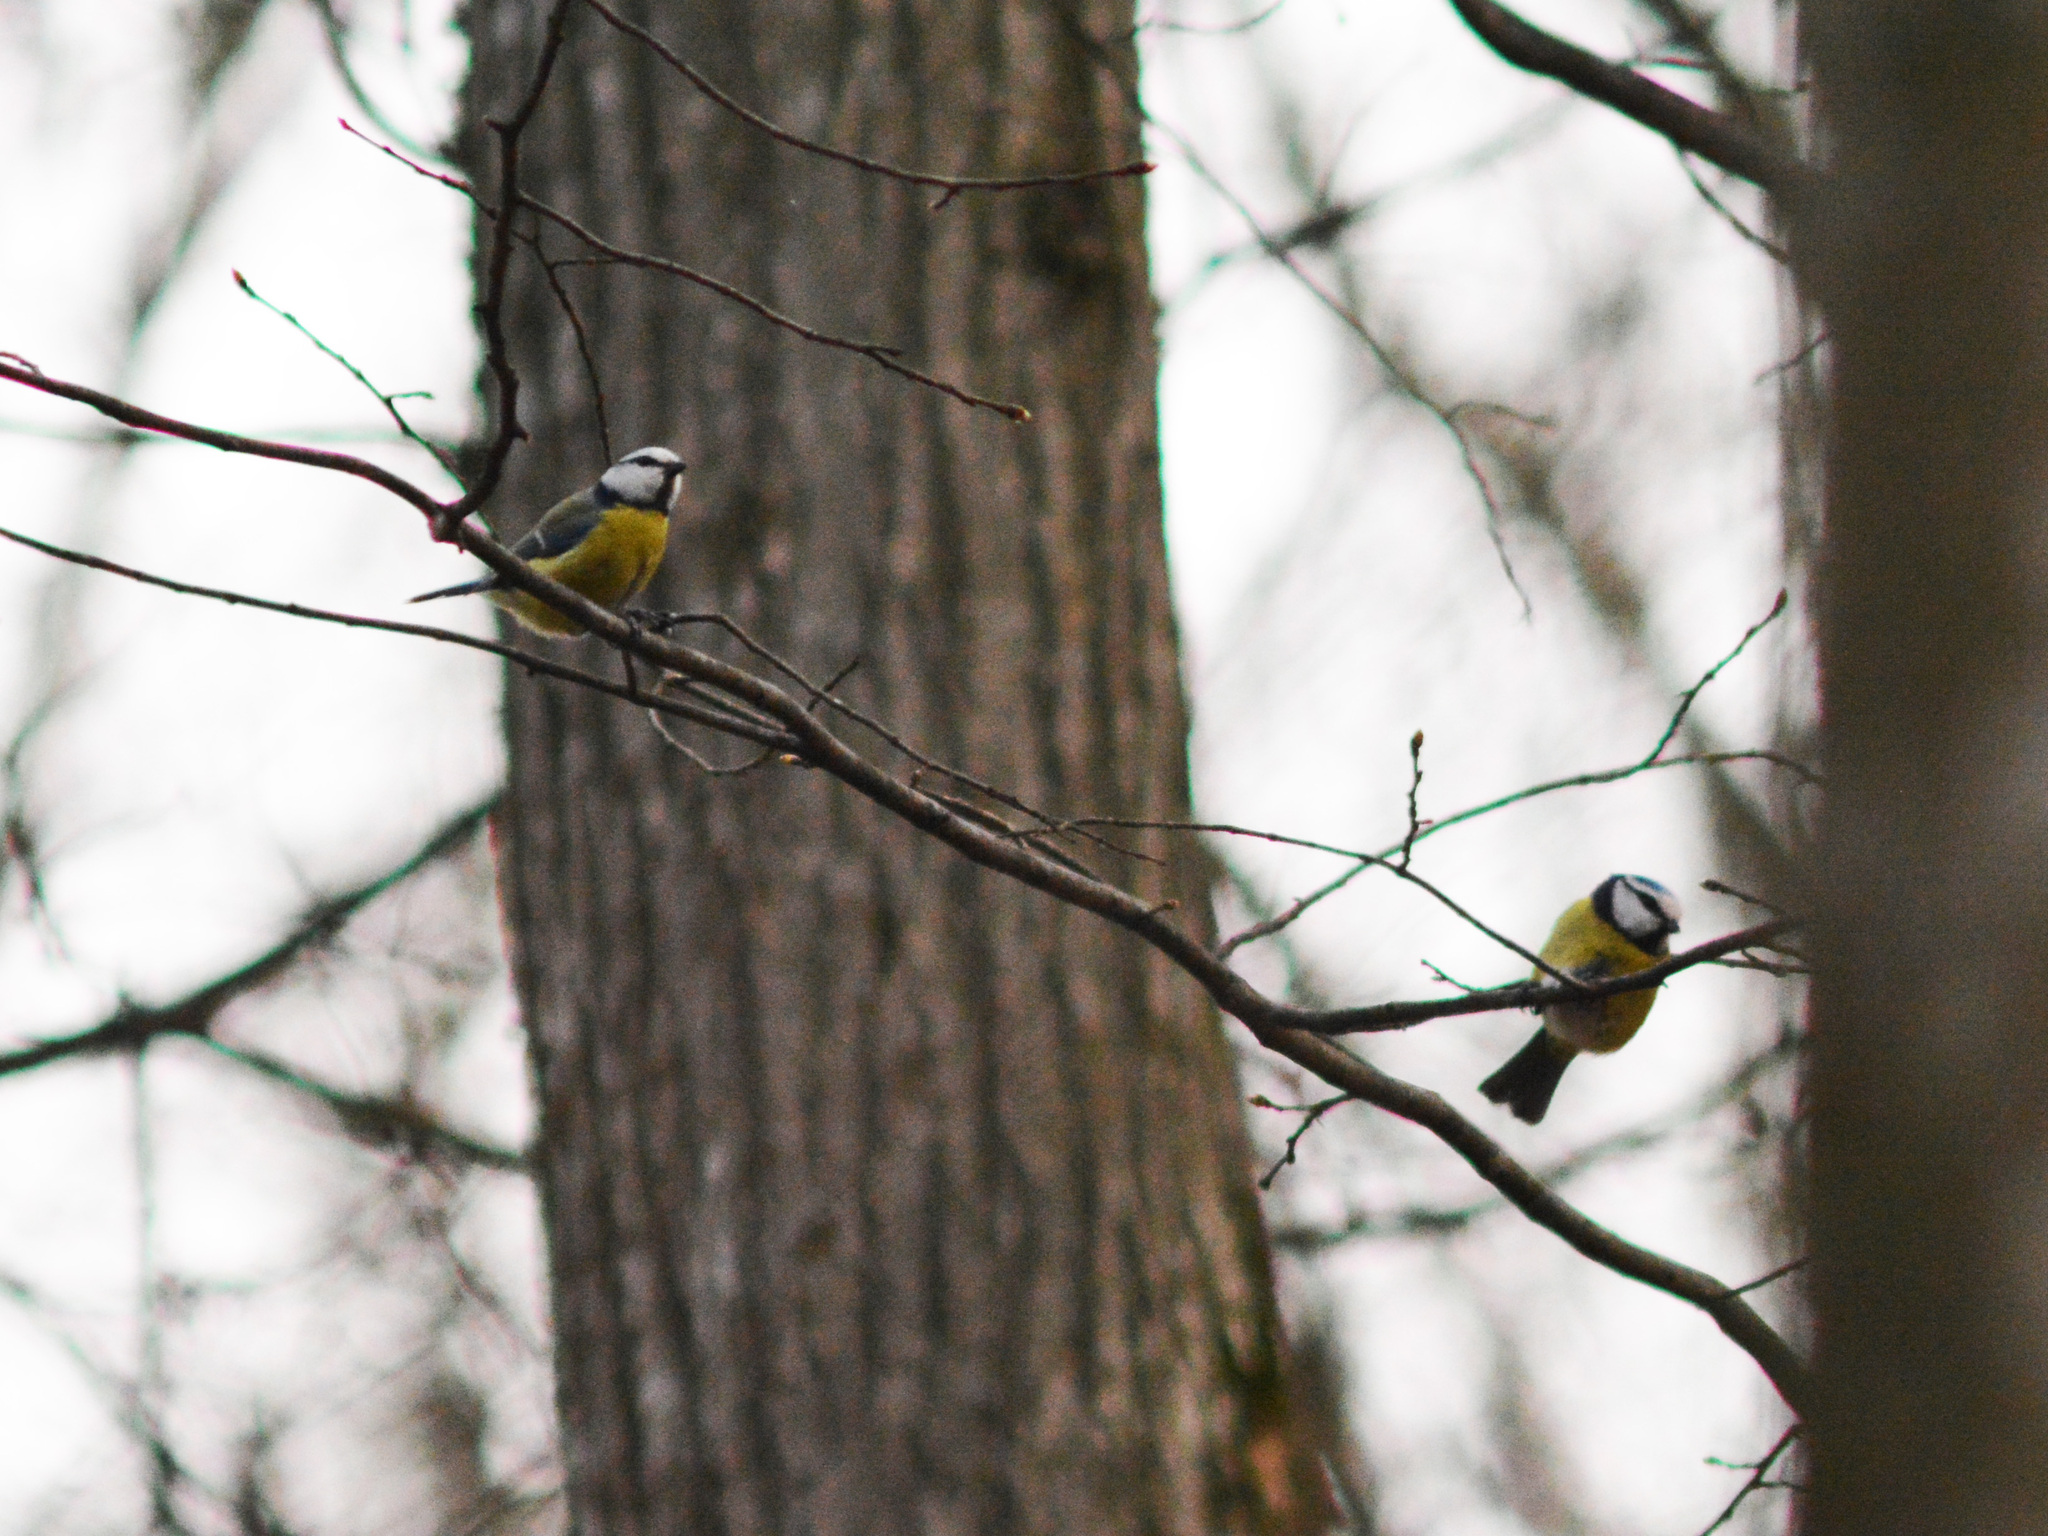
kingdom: Animalia
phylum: Chordata
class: Aves
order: Passeriformes
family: Paridae
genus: Cyanistes
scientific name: Cyanistes caeruleus
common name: Eurasian blue tit
